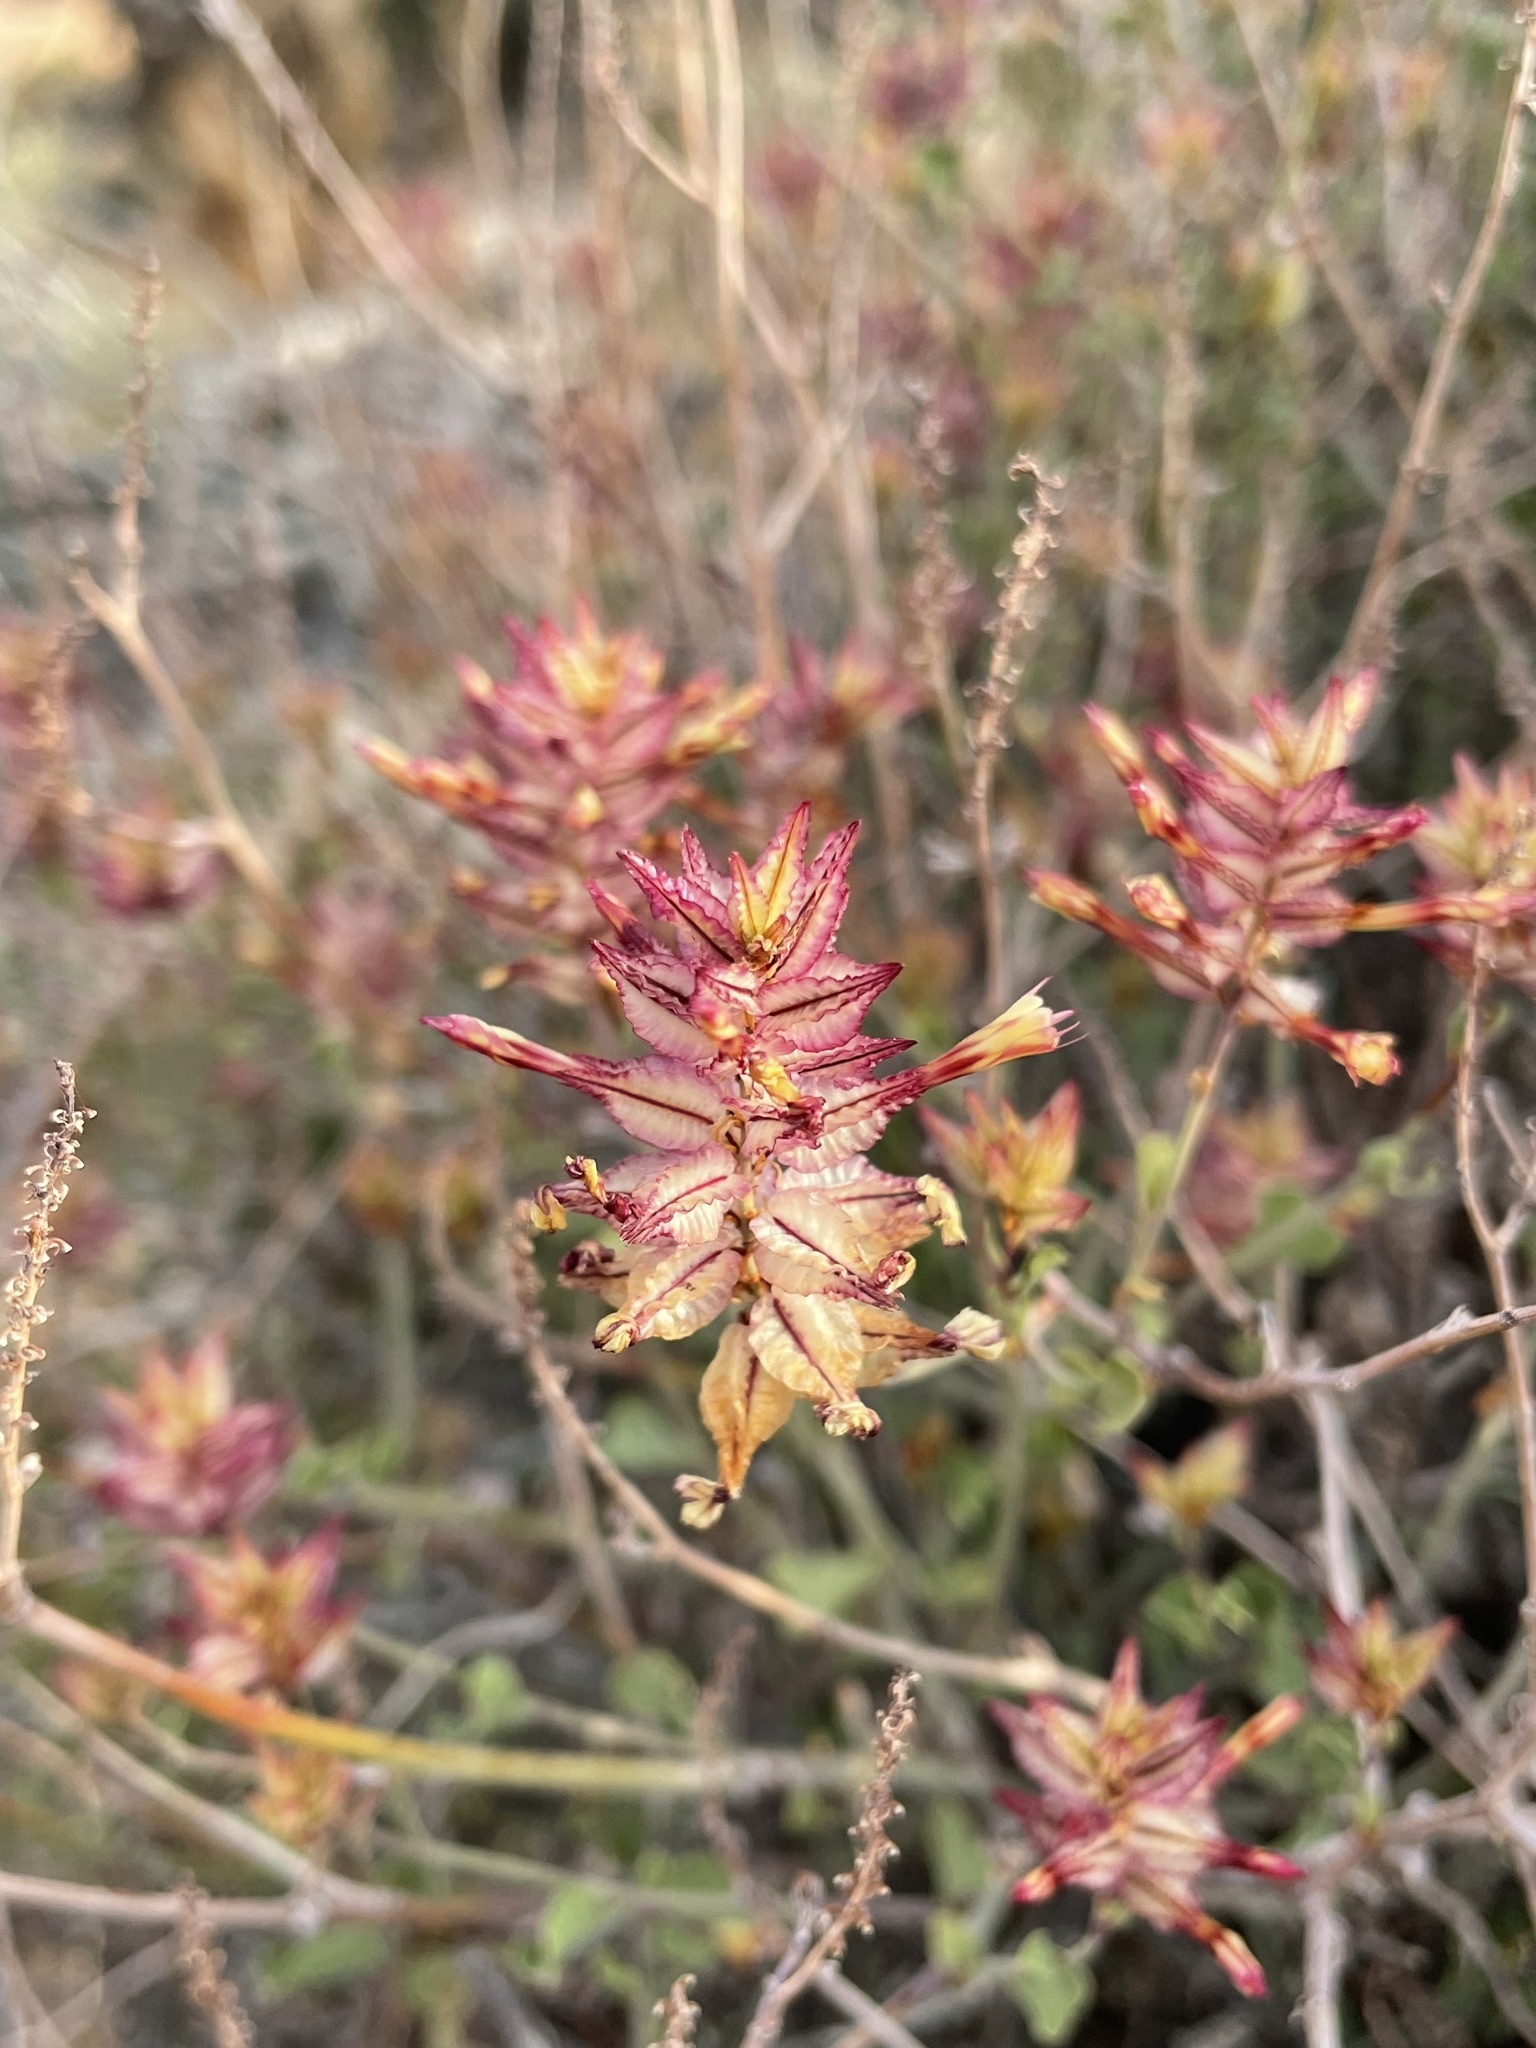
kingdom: Plantae
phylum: Tracheophyta
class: Magnoliopsida
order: Caryophyllales
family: Plumbaginaceae
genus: Dyerophytum
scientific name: Dyerophytum africanum
